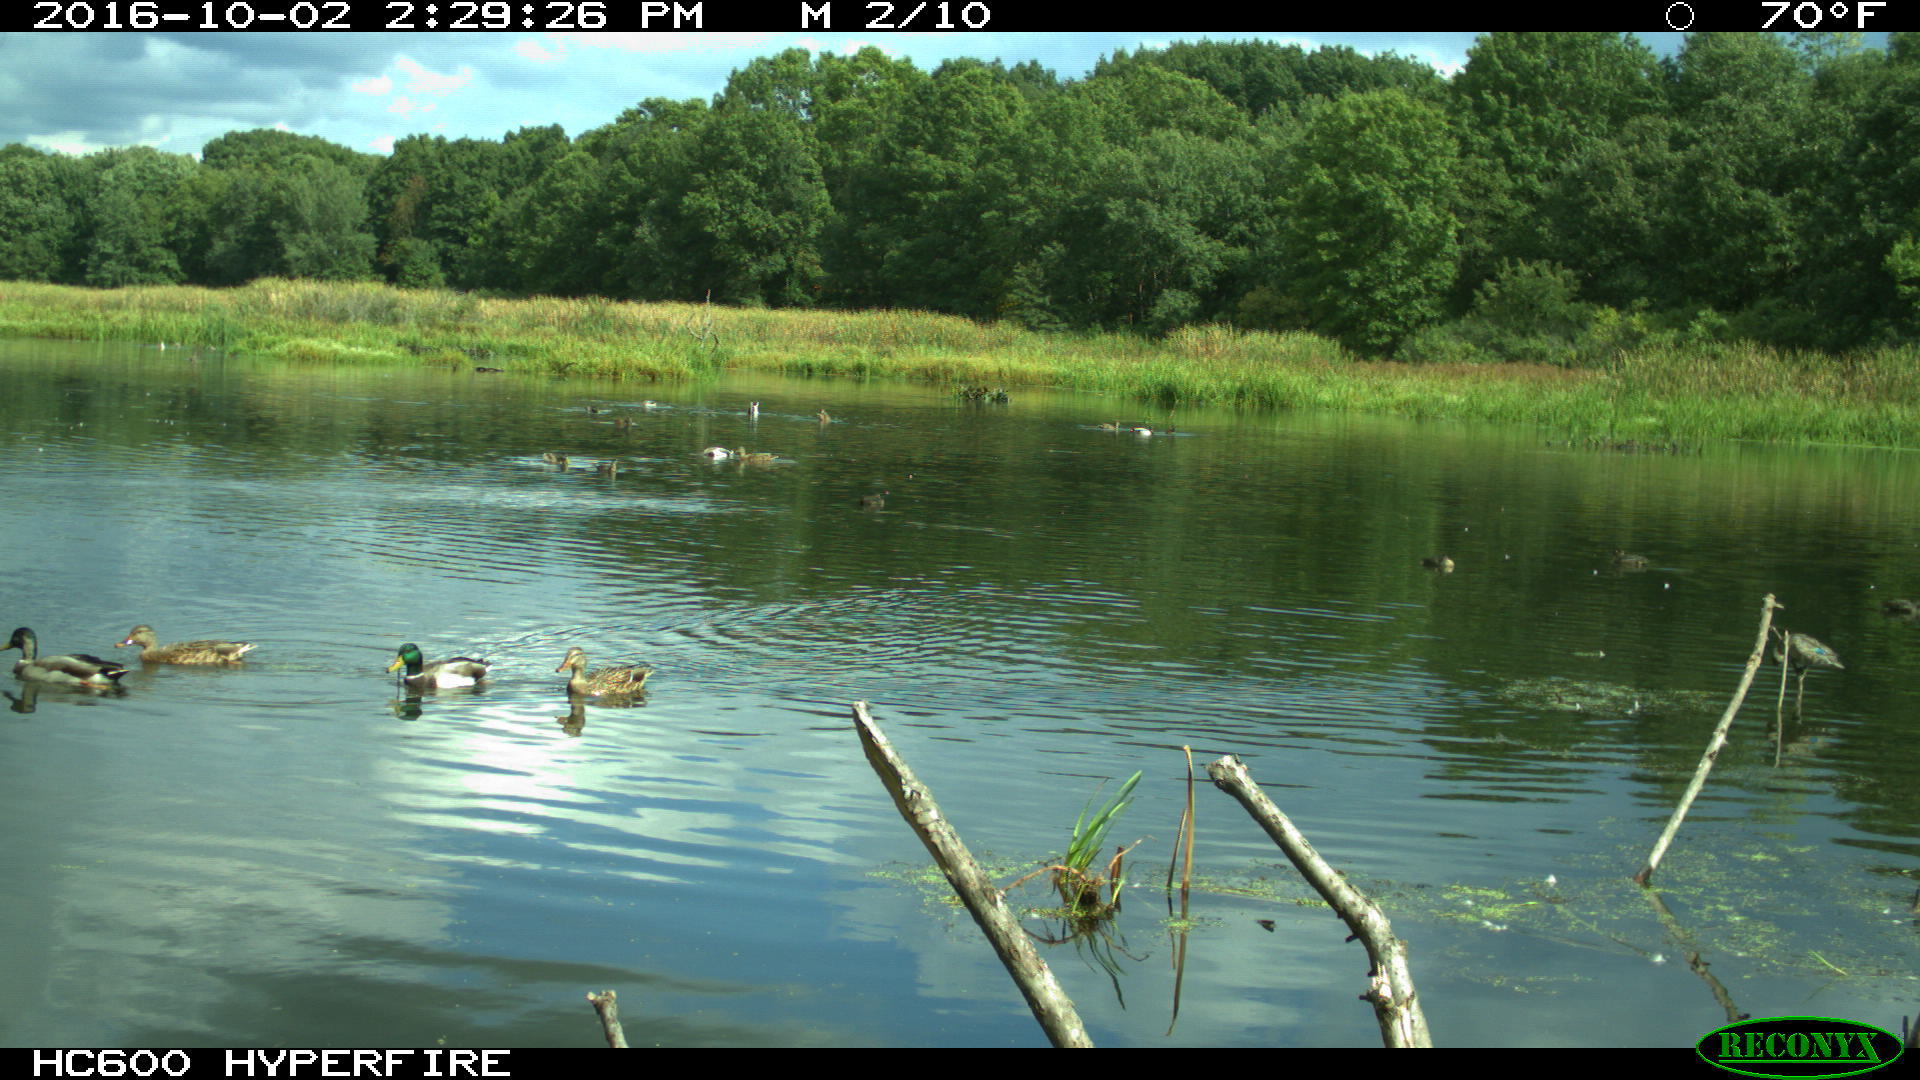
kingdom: Animalia
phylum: Chordata
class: Aves
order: Anseriformes
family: Anatidae
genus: Anas
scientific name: Anas platyrhynchos
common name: Mallard
